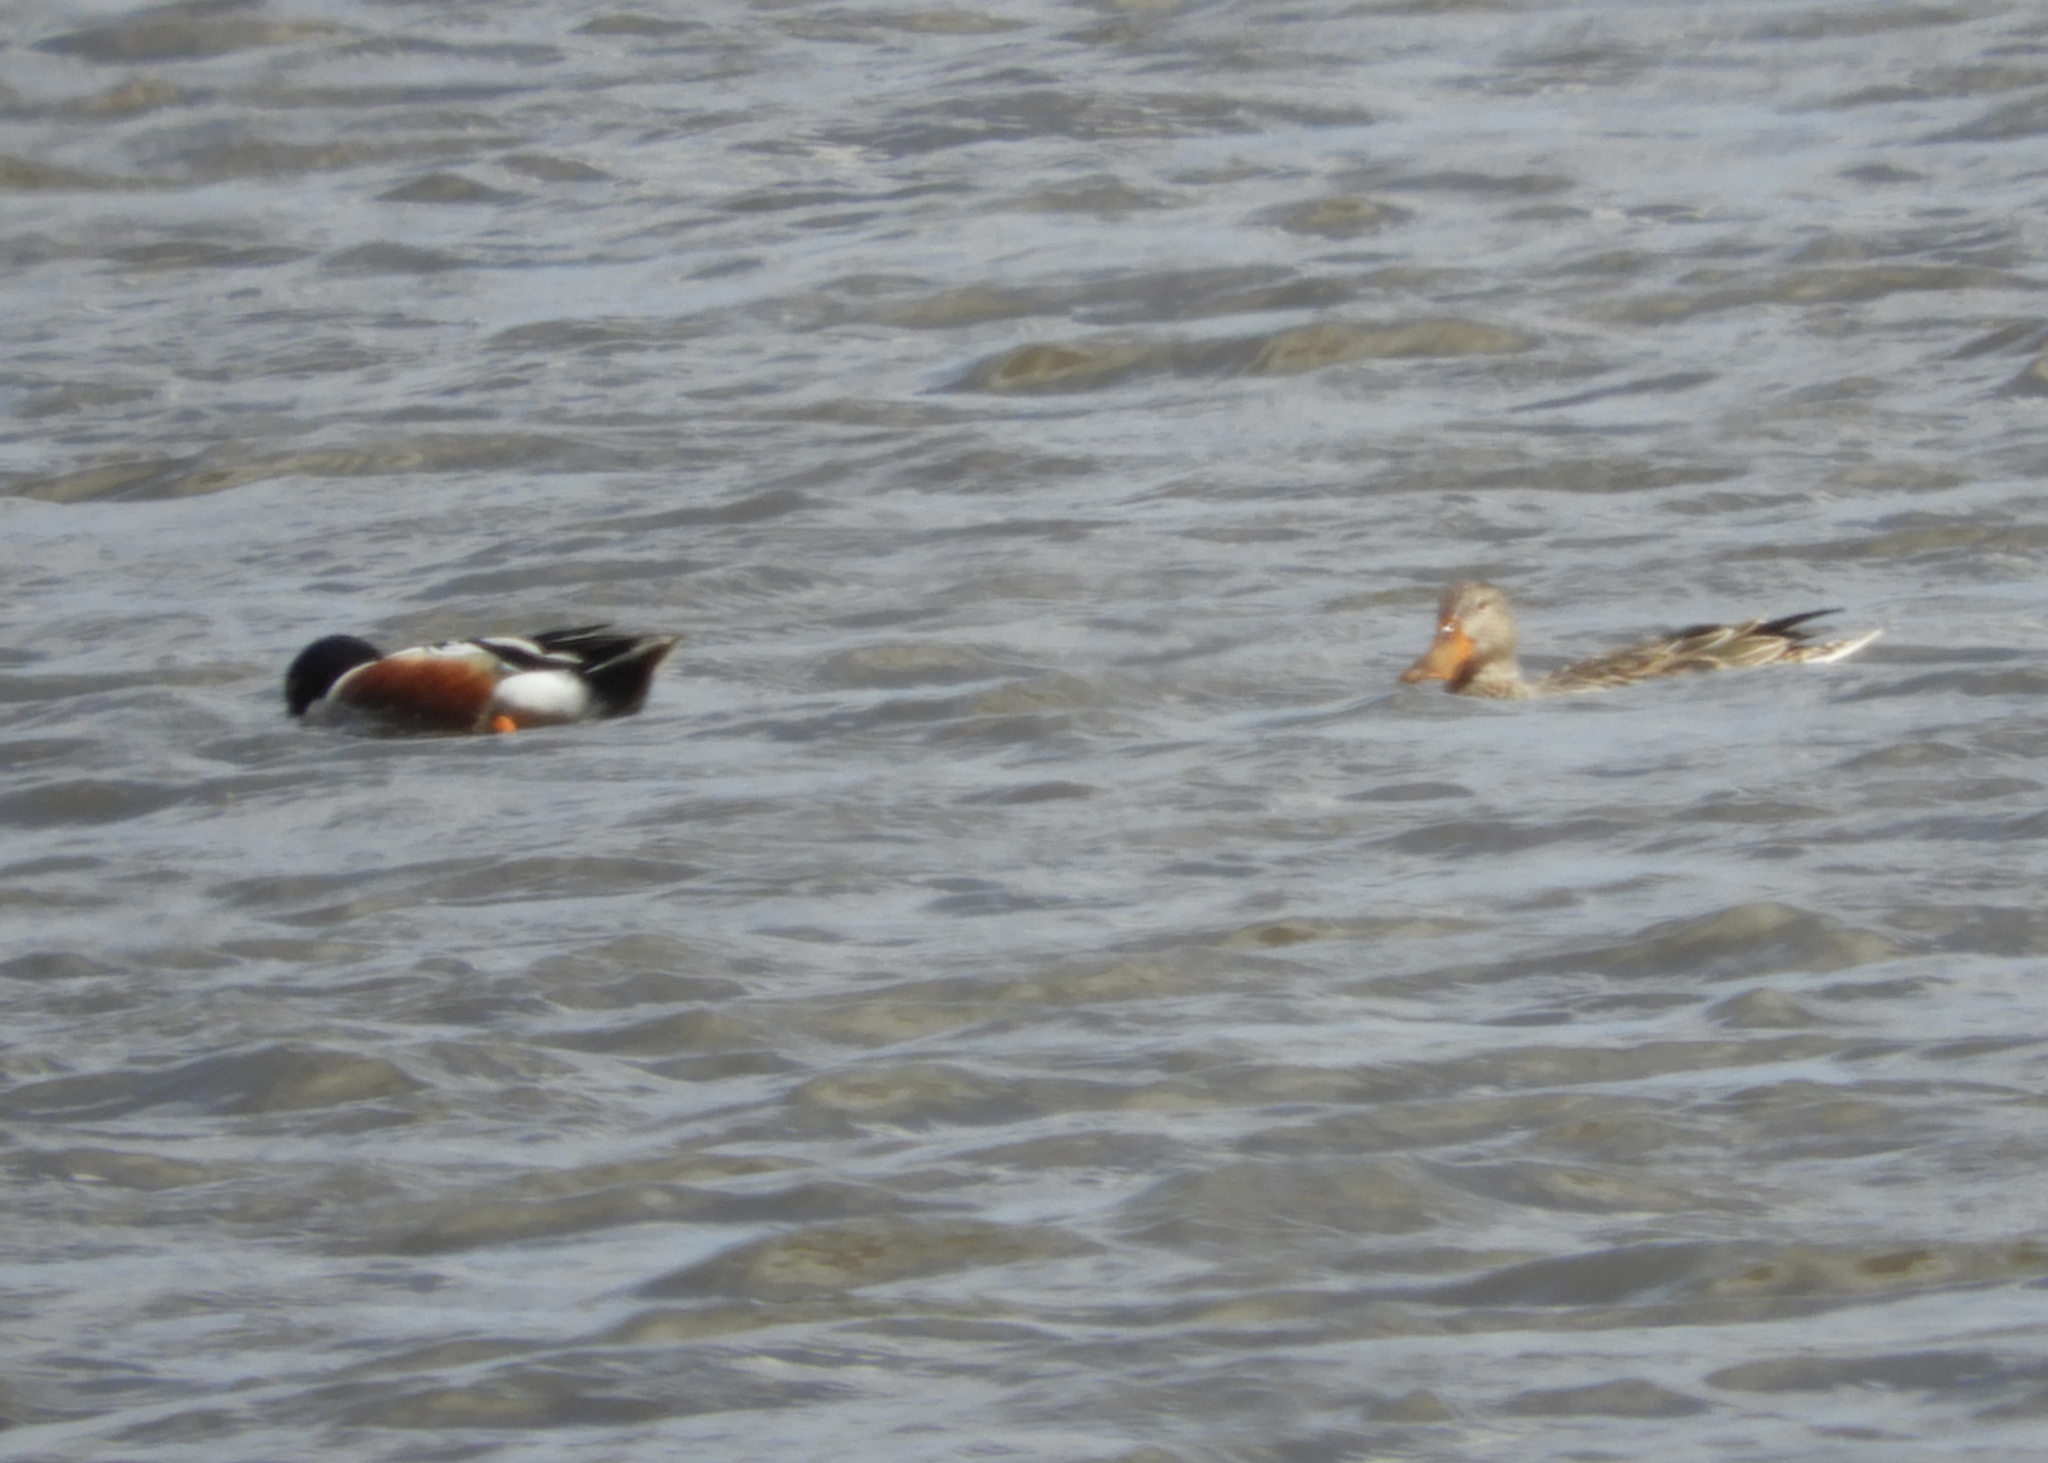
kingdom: Animalia
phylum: Chordata
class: Aves
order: Anseriformes
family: Anatidae
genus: Spatula
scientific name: Spatula clypeata
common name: Northern shoveler
